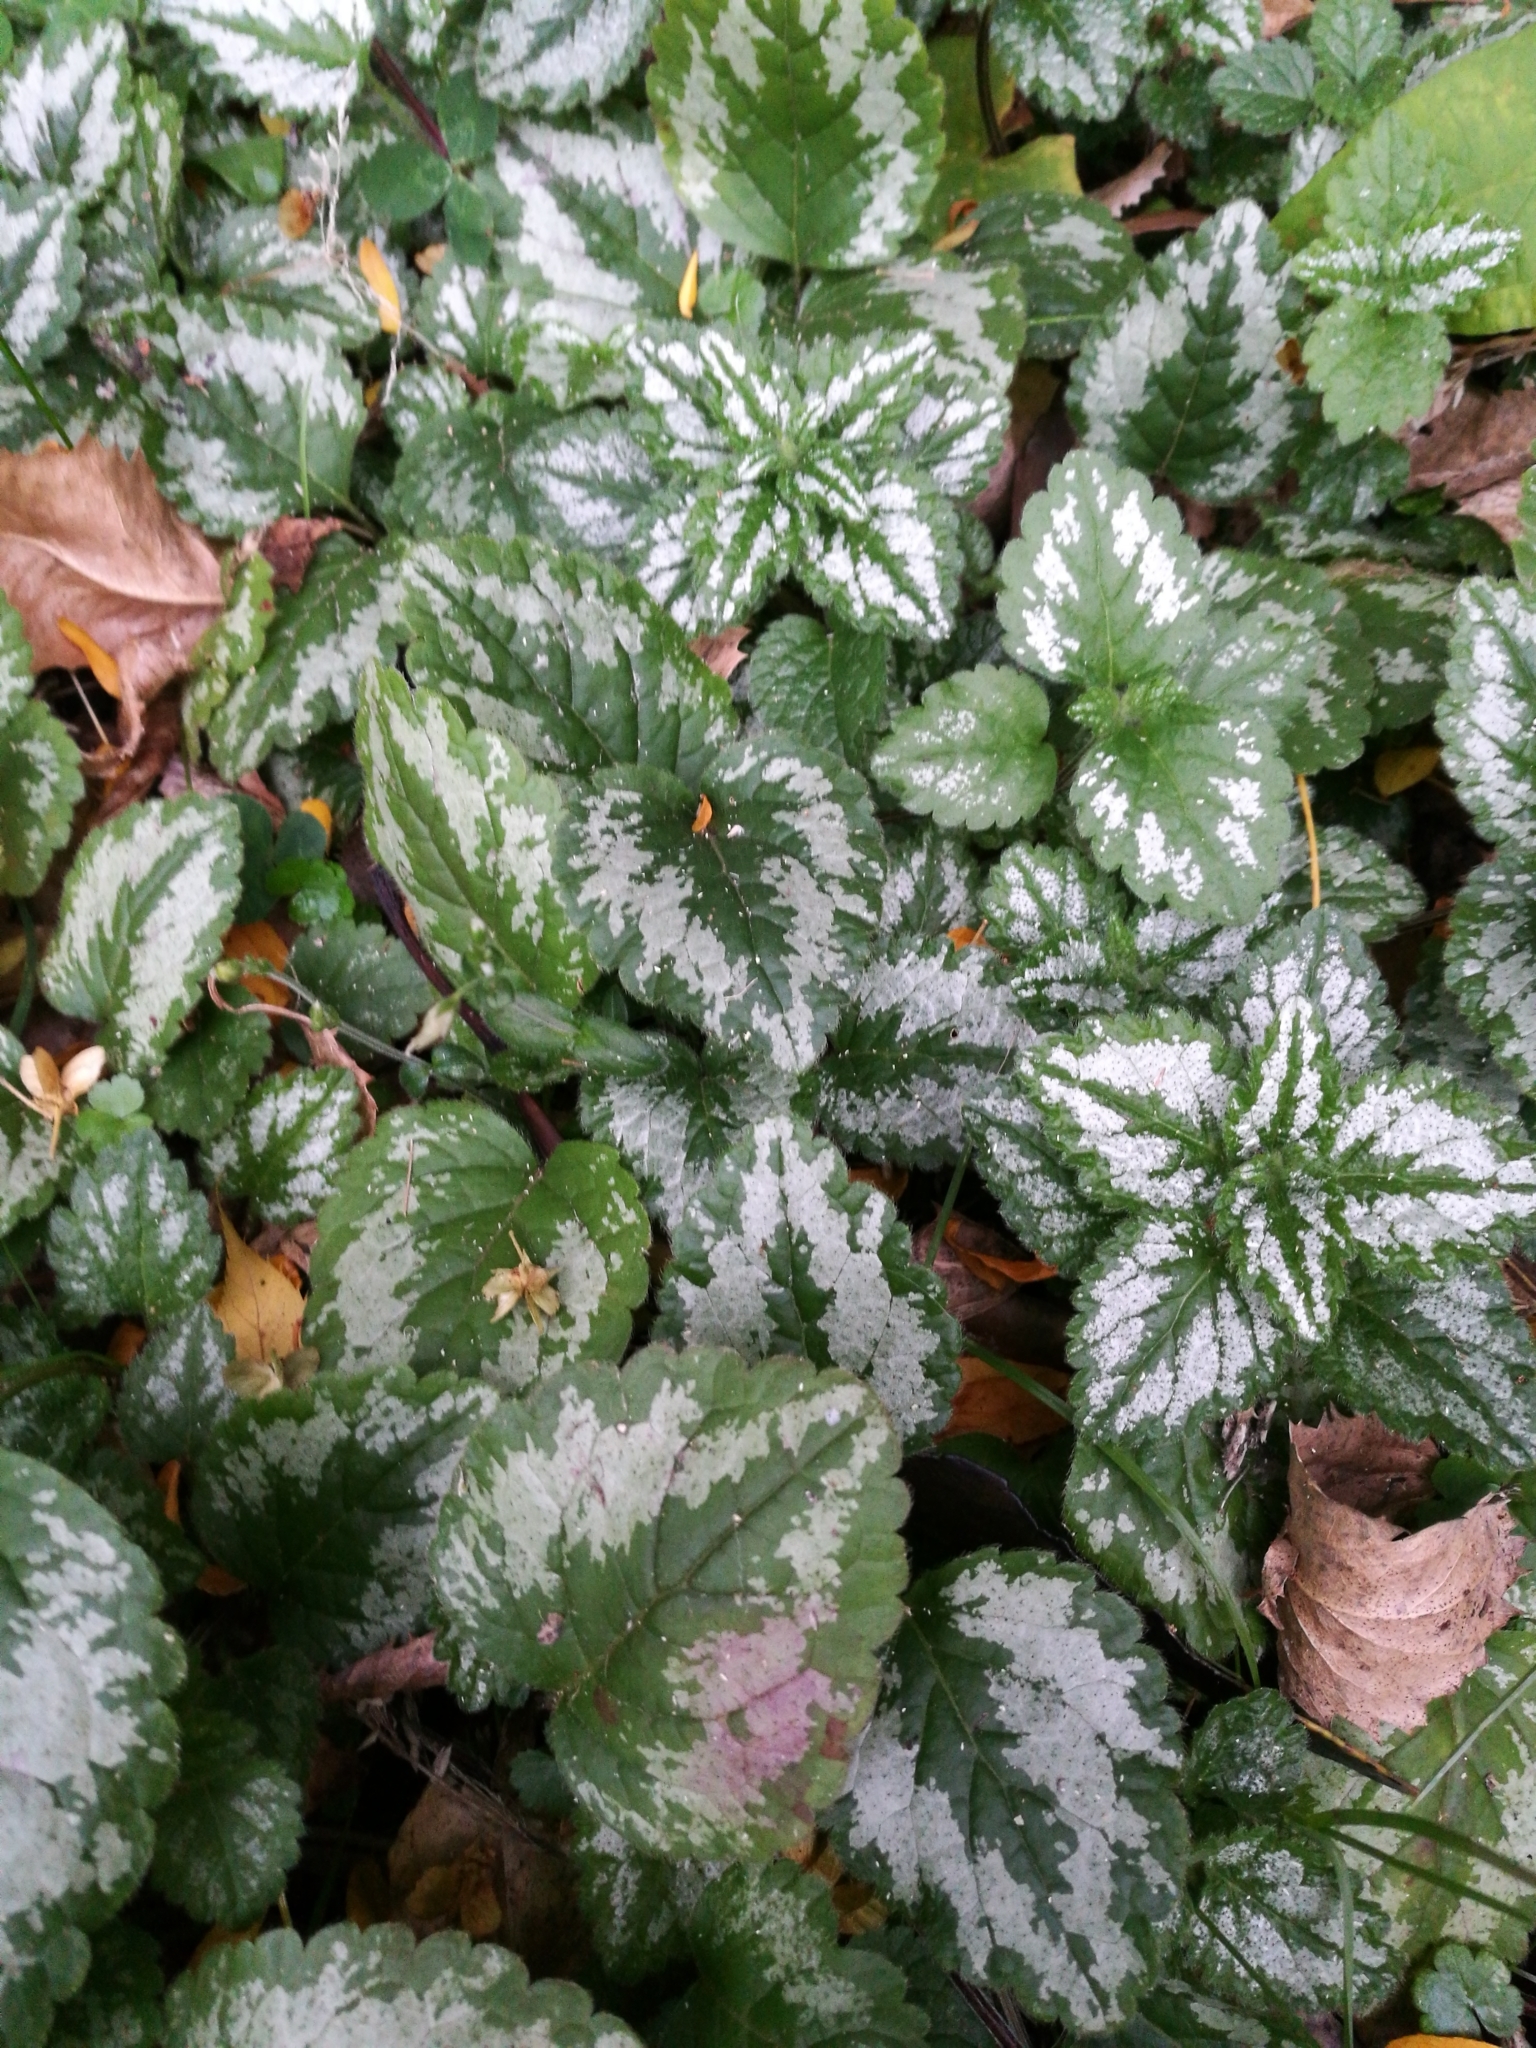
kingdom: Plantae
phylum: Tracheophyta
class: Magnoliopsida
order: Lamiales
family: Lamiaceae
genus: Lamium
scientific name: Lamium galeobdolon
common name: Yellow archangel
